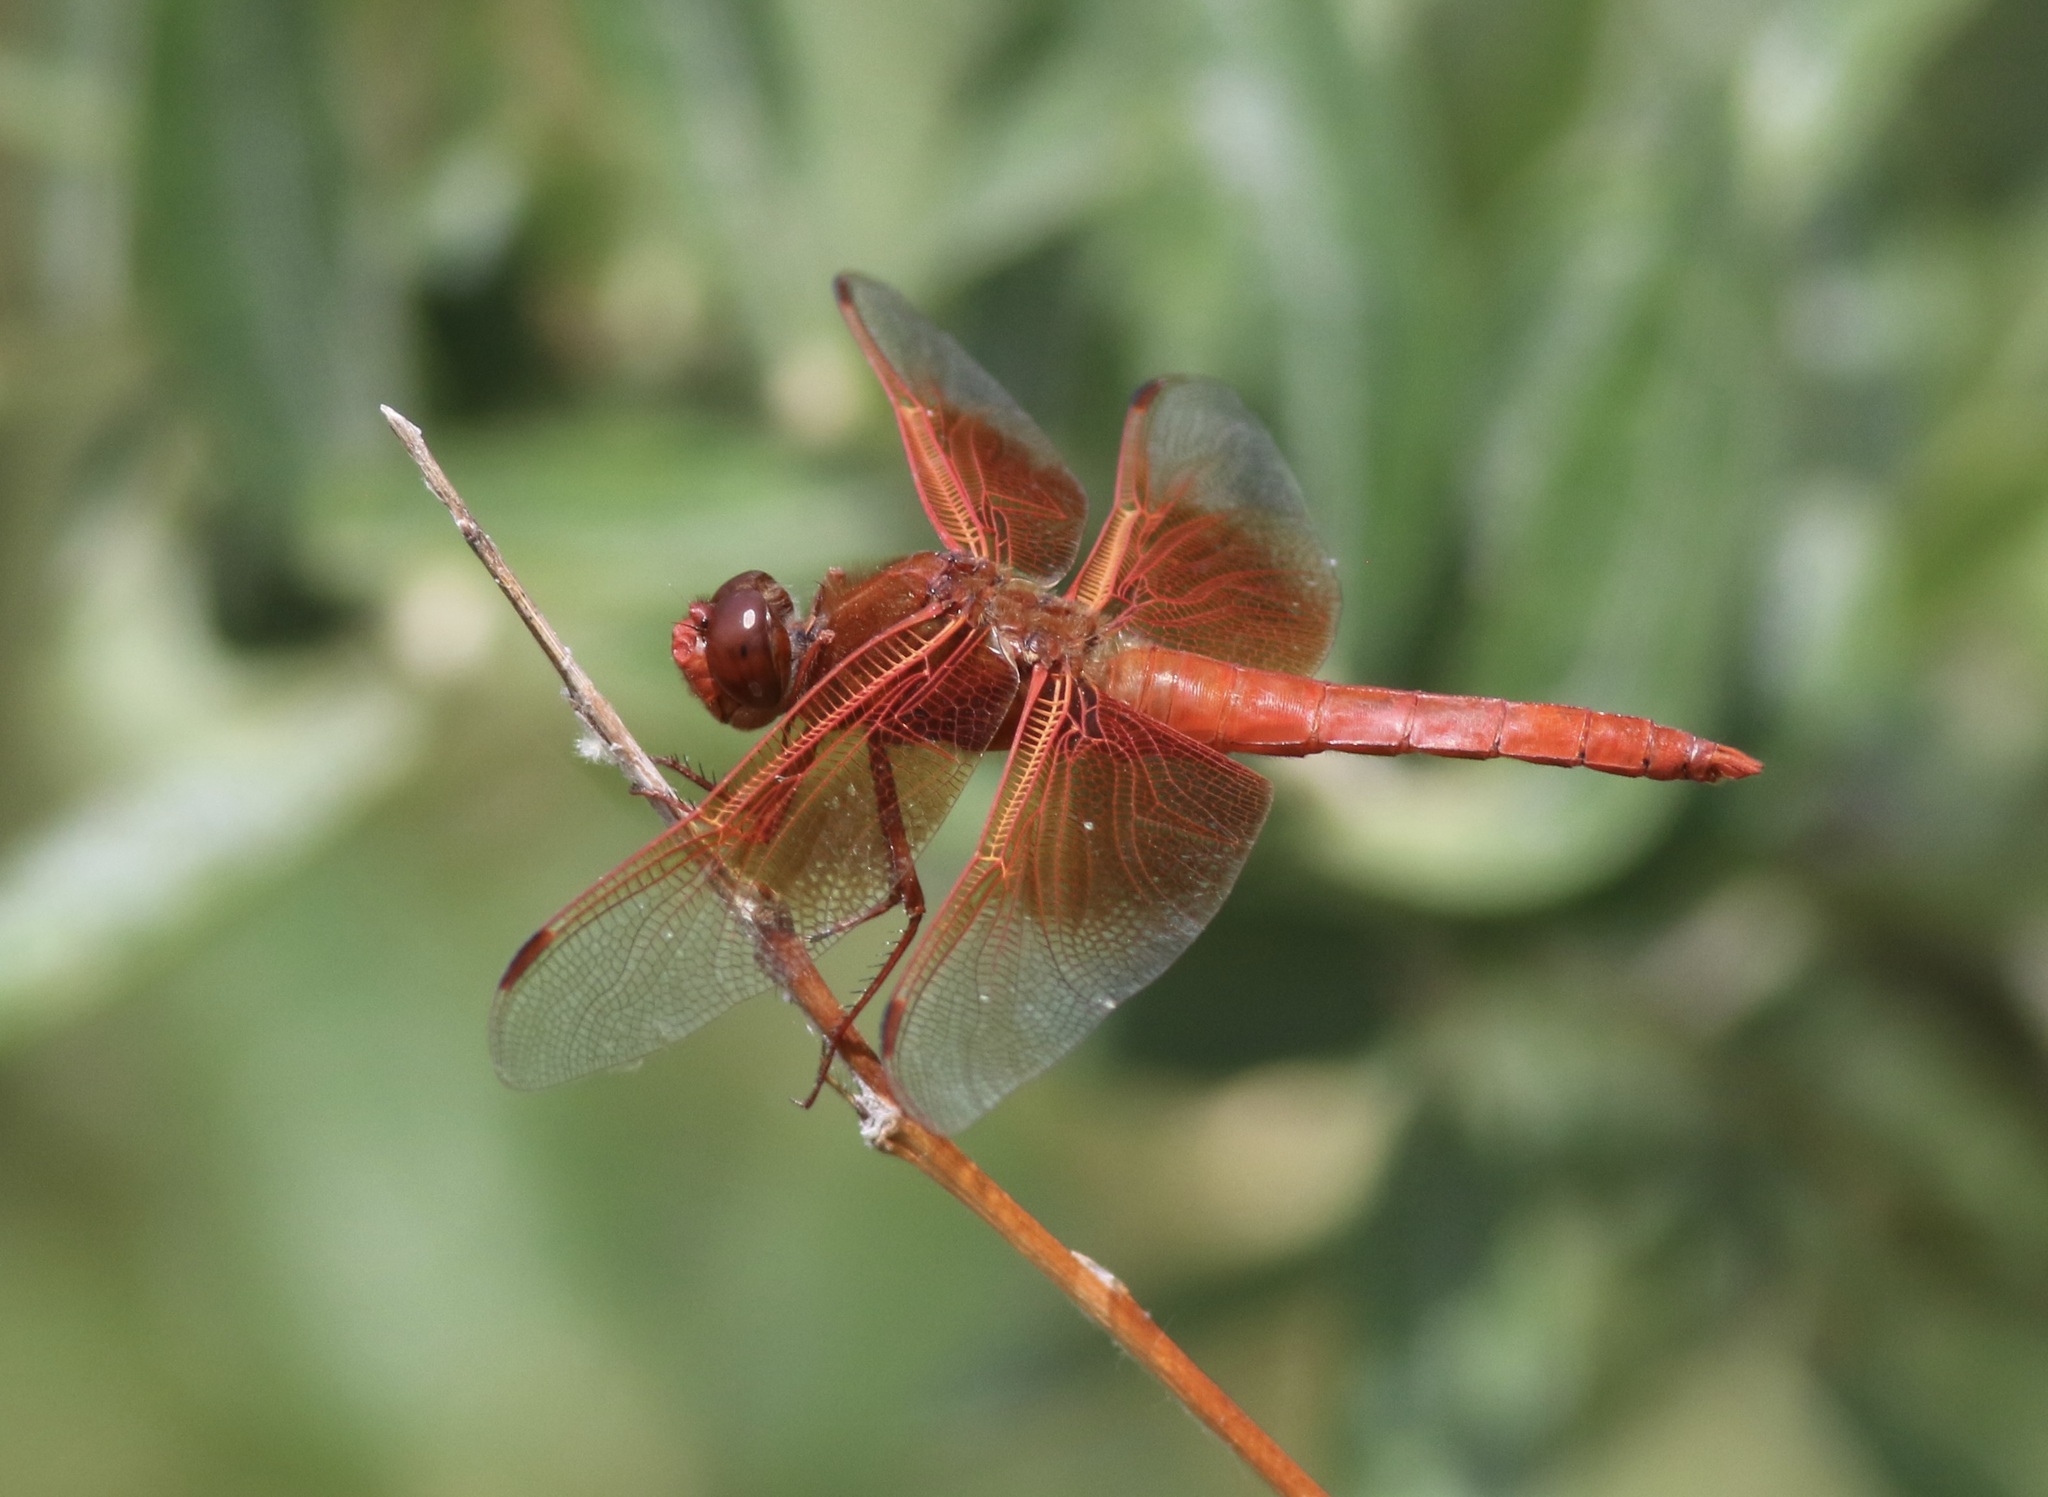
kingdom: Animalia
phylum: Arthropoda
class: Insecta
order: Odonata
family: Libellulidae
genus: Libellula
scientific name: Libellula saturata
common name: Flame skimmer
